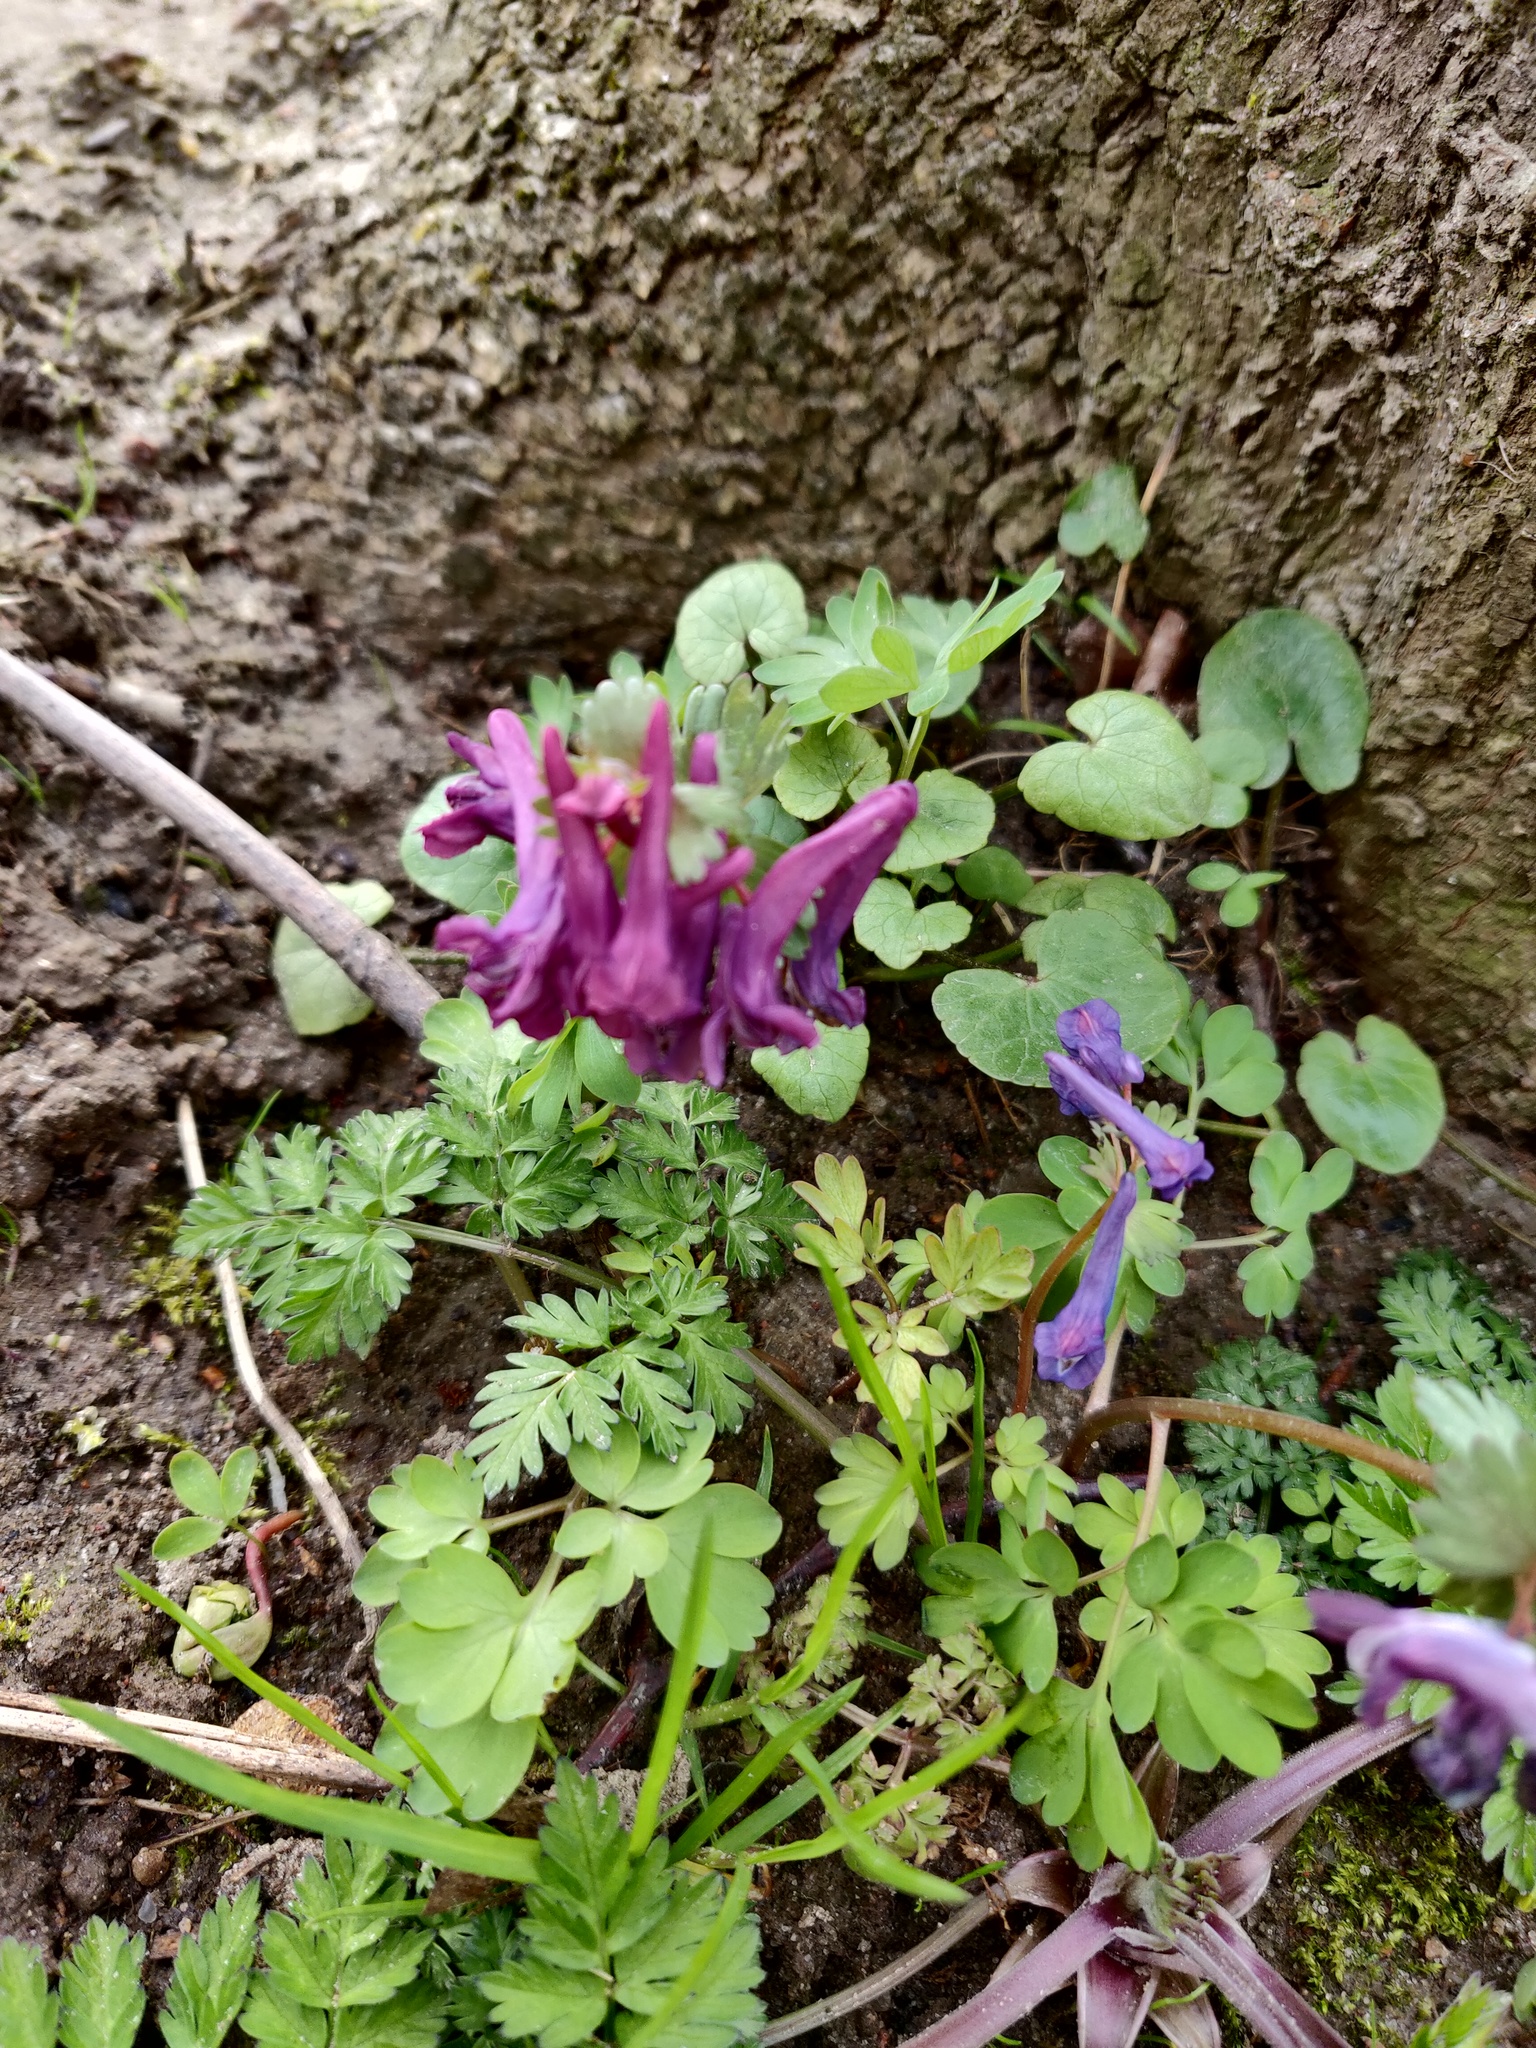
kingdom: Plantae
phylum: Tracheophyta
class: Magnoliopsida
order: Ranunculales
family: Papaveraceae
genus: Corydalis
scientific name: Corydalis solida
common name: Bird-in-a-bush
